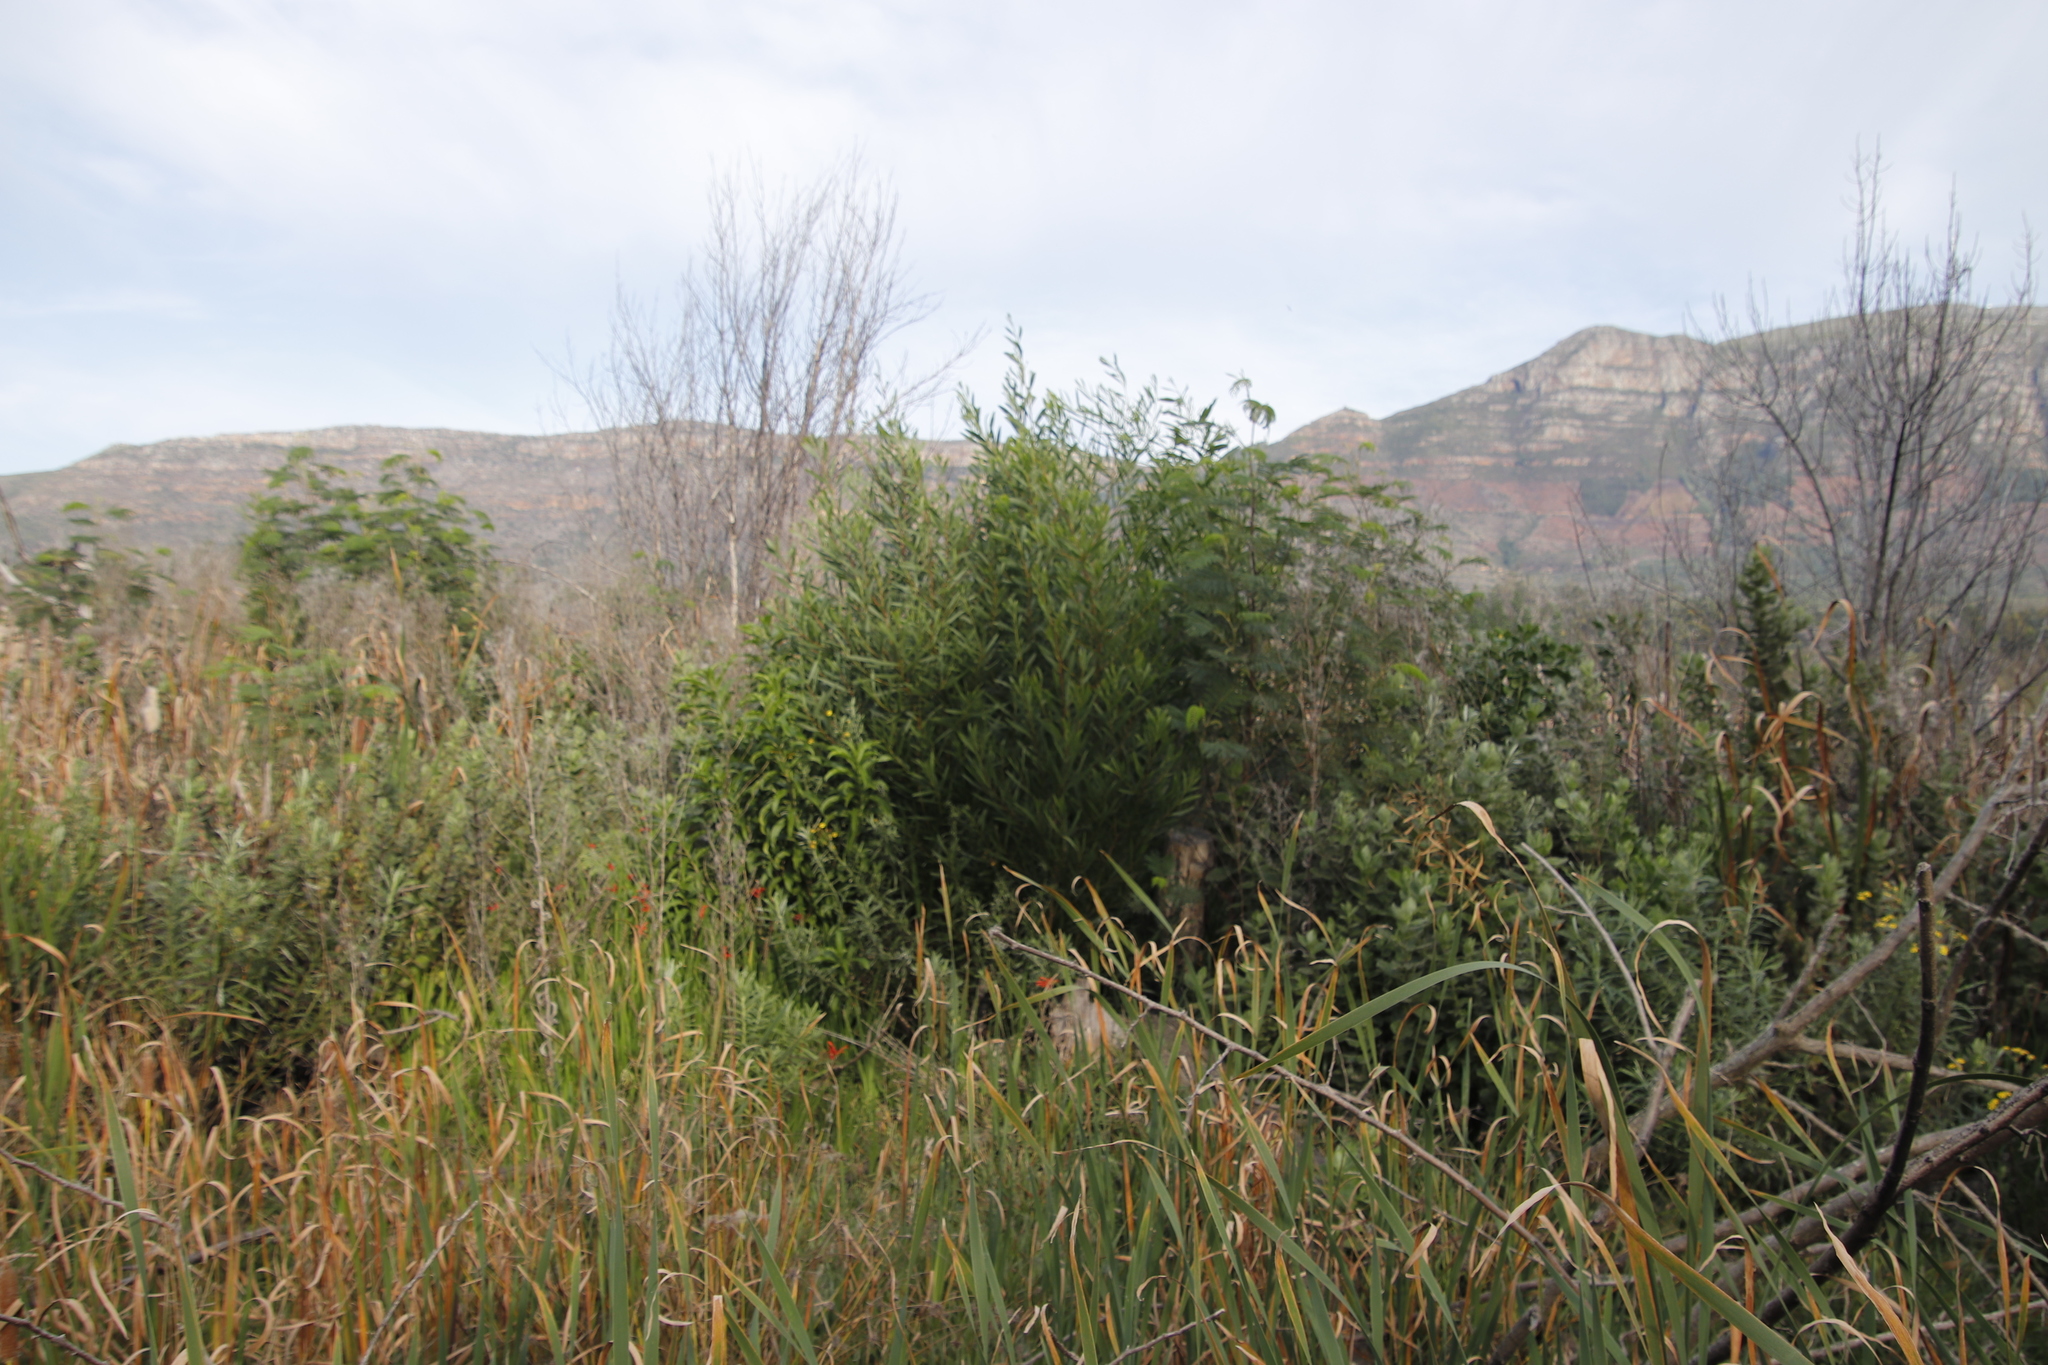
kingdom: Plantae
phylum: Tracheophyta
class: Magnoliopsida
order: Fabales
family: Fabaceae
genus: Acacia
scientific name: Acacia longifolia
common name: Sydney golden wattle
